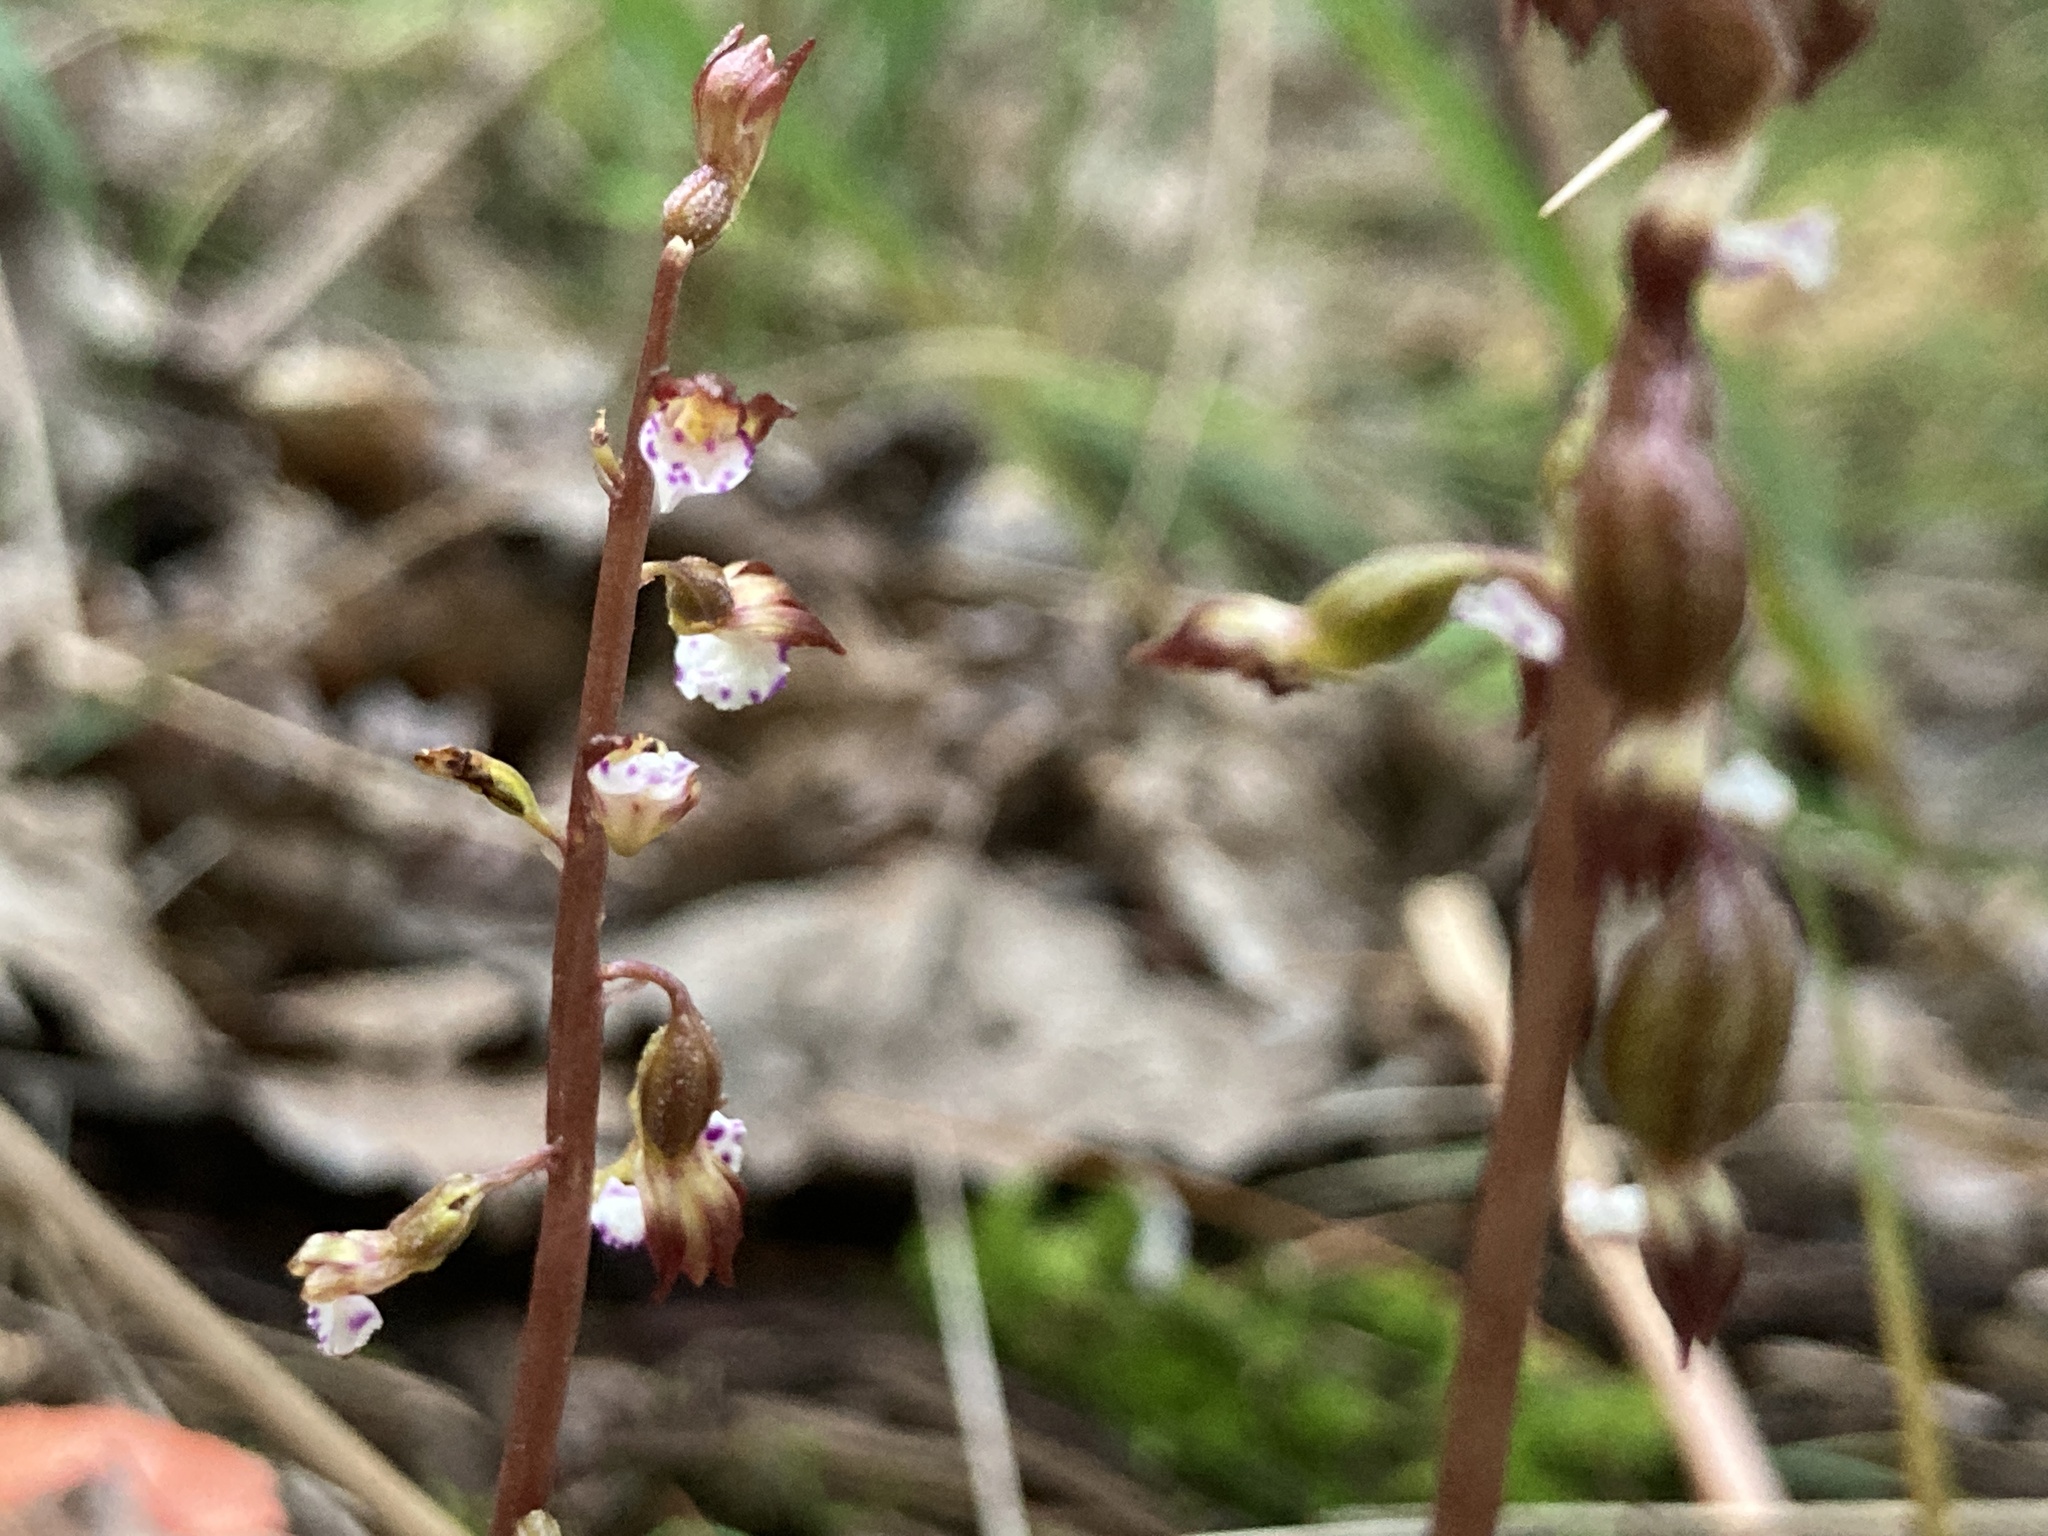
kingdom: Plantae
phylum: Tracheophyta
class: Liliopsida
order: Asparagales
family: Orchidaceae
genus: Corallorhiza
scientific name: Corallorhiza odontorhiza
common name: Autumn coralroot
